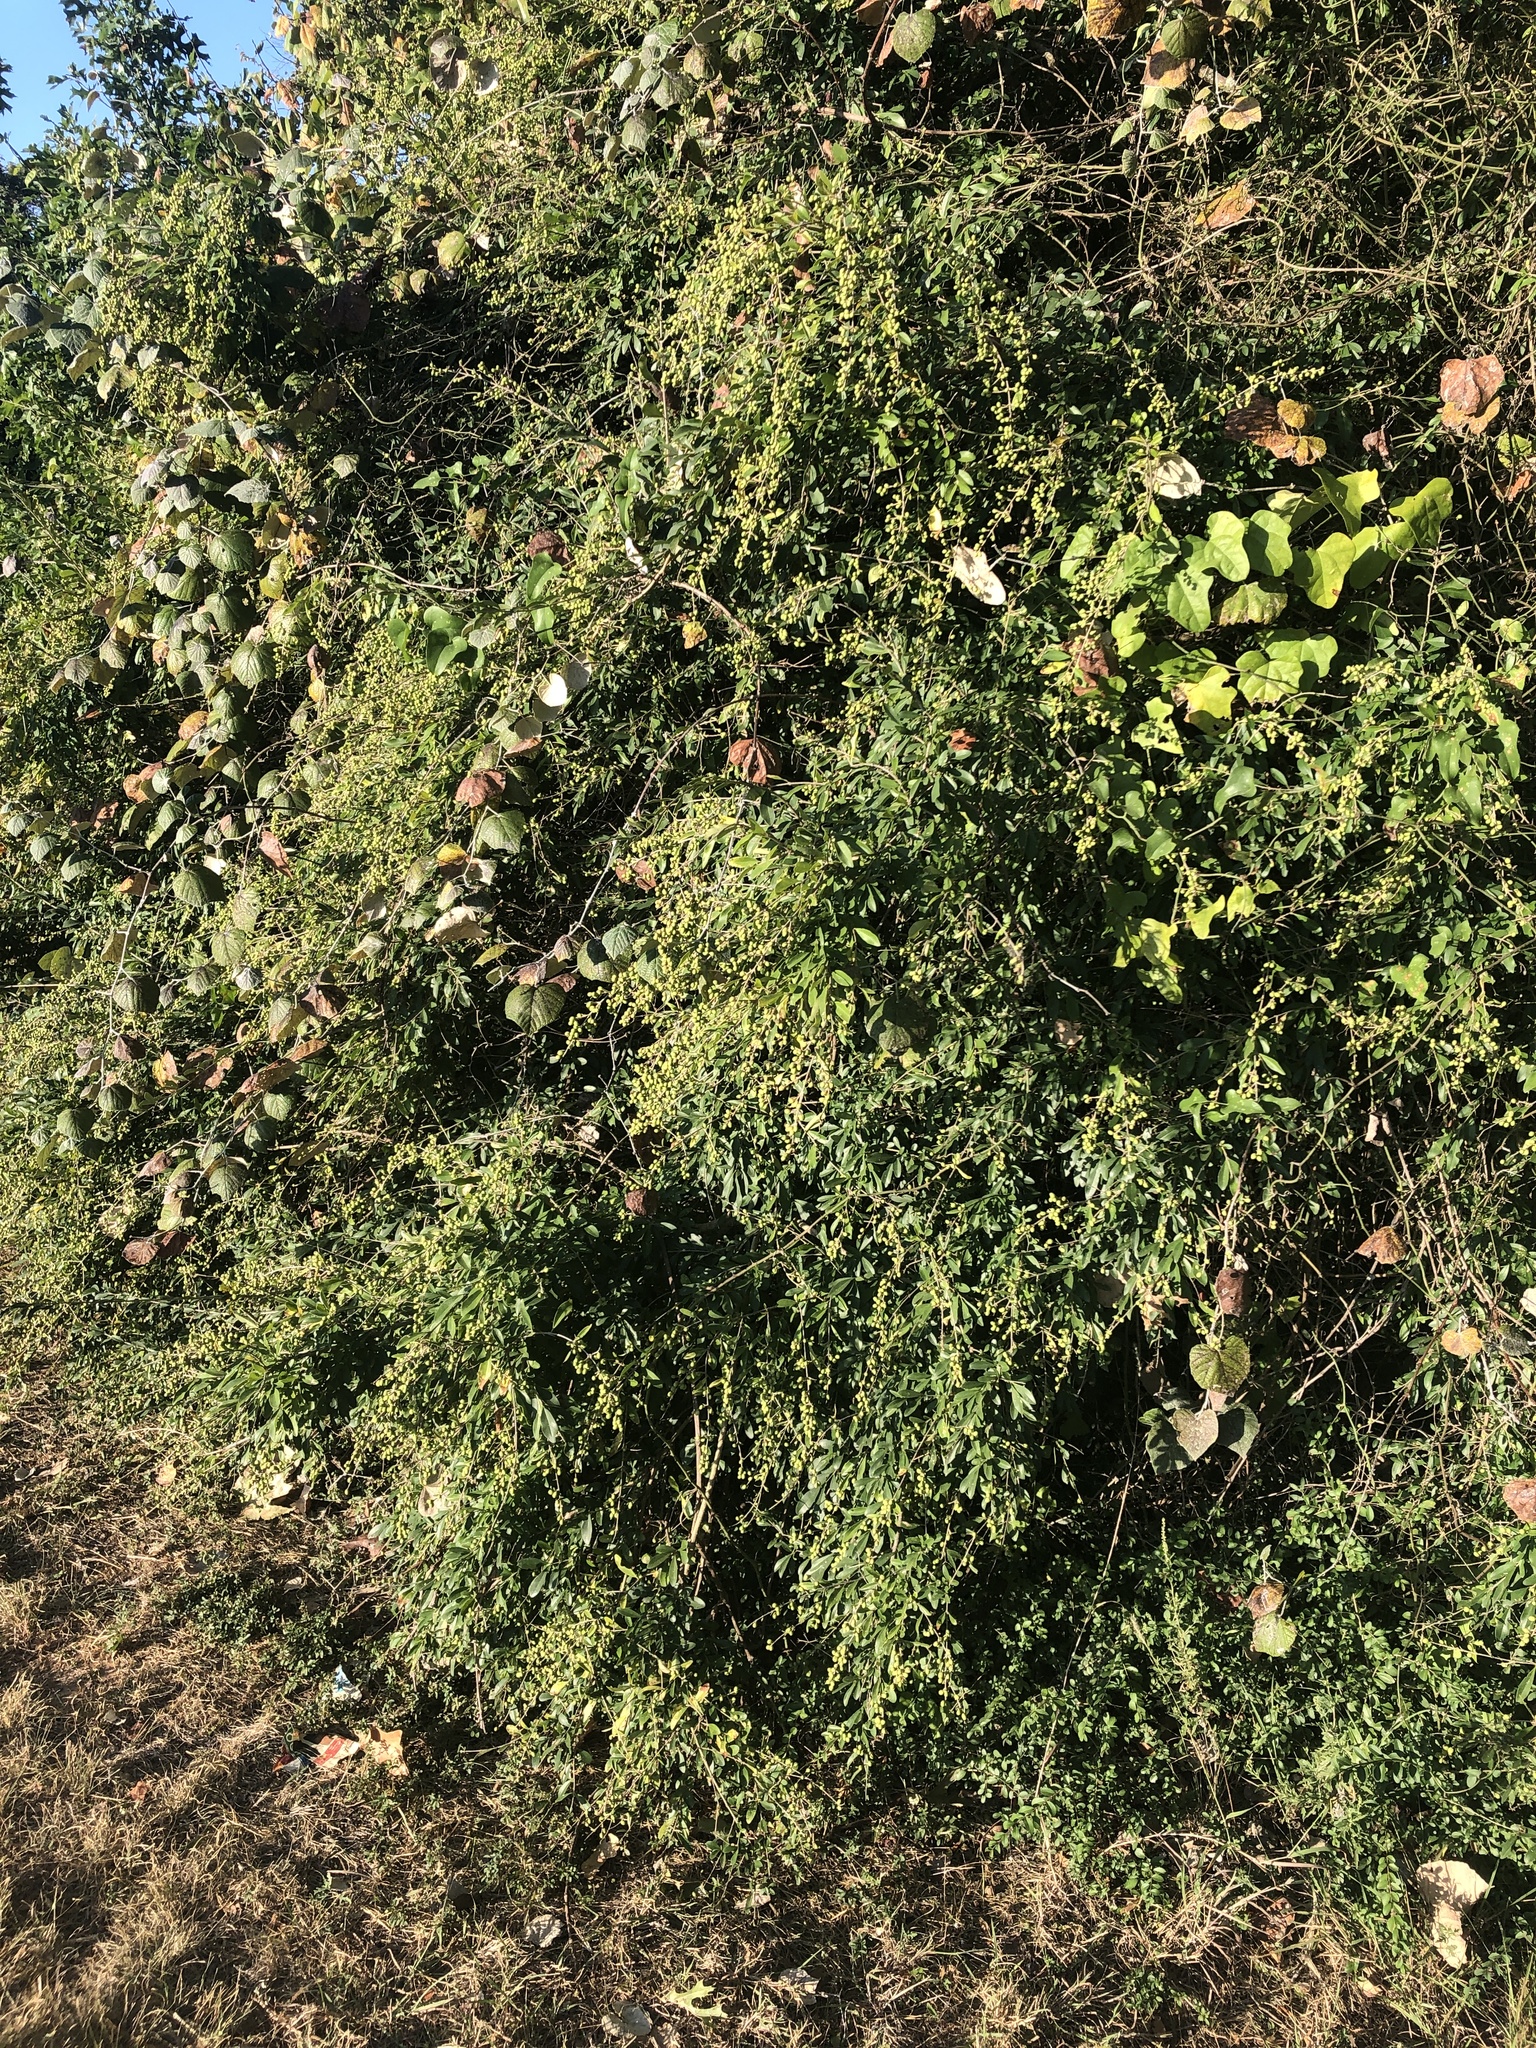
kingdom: Plantae
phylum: Tracheophyta
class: Magnoliopsida
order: Lamiales
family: Oleaceae
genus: Ligustrum
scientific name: Ligustrum quihoui
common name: Waxyleaf privet
